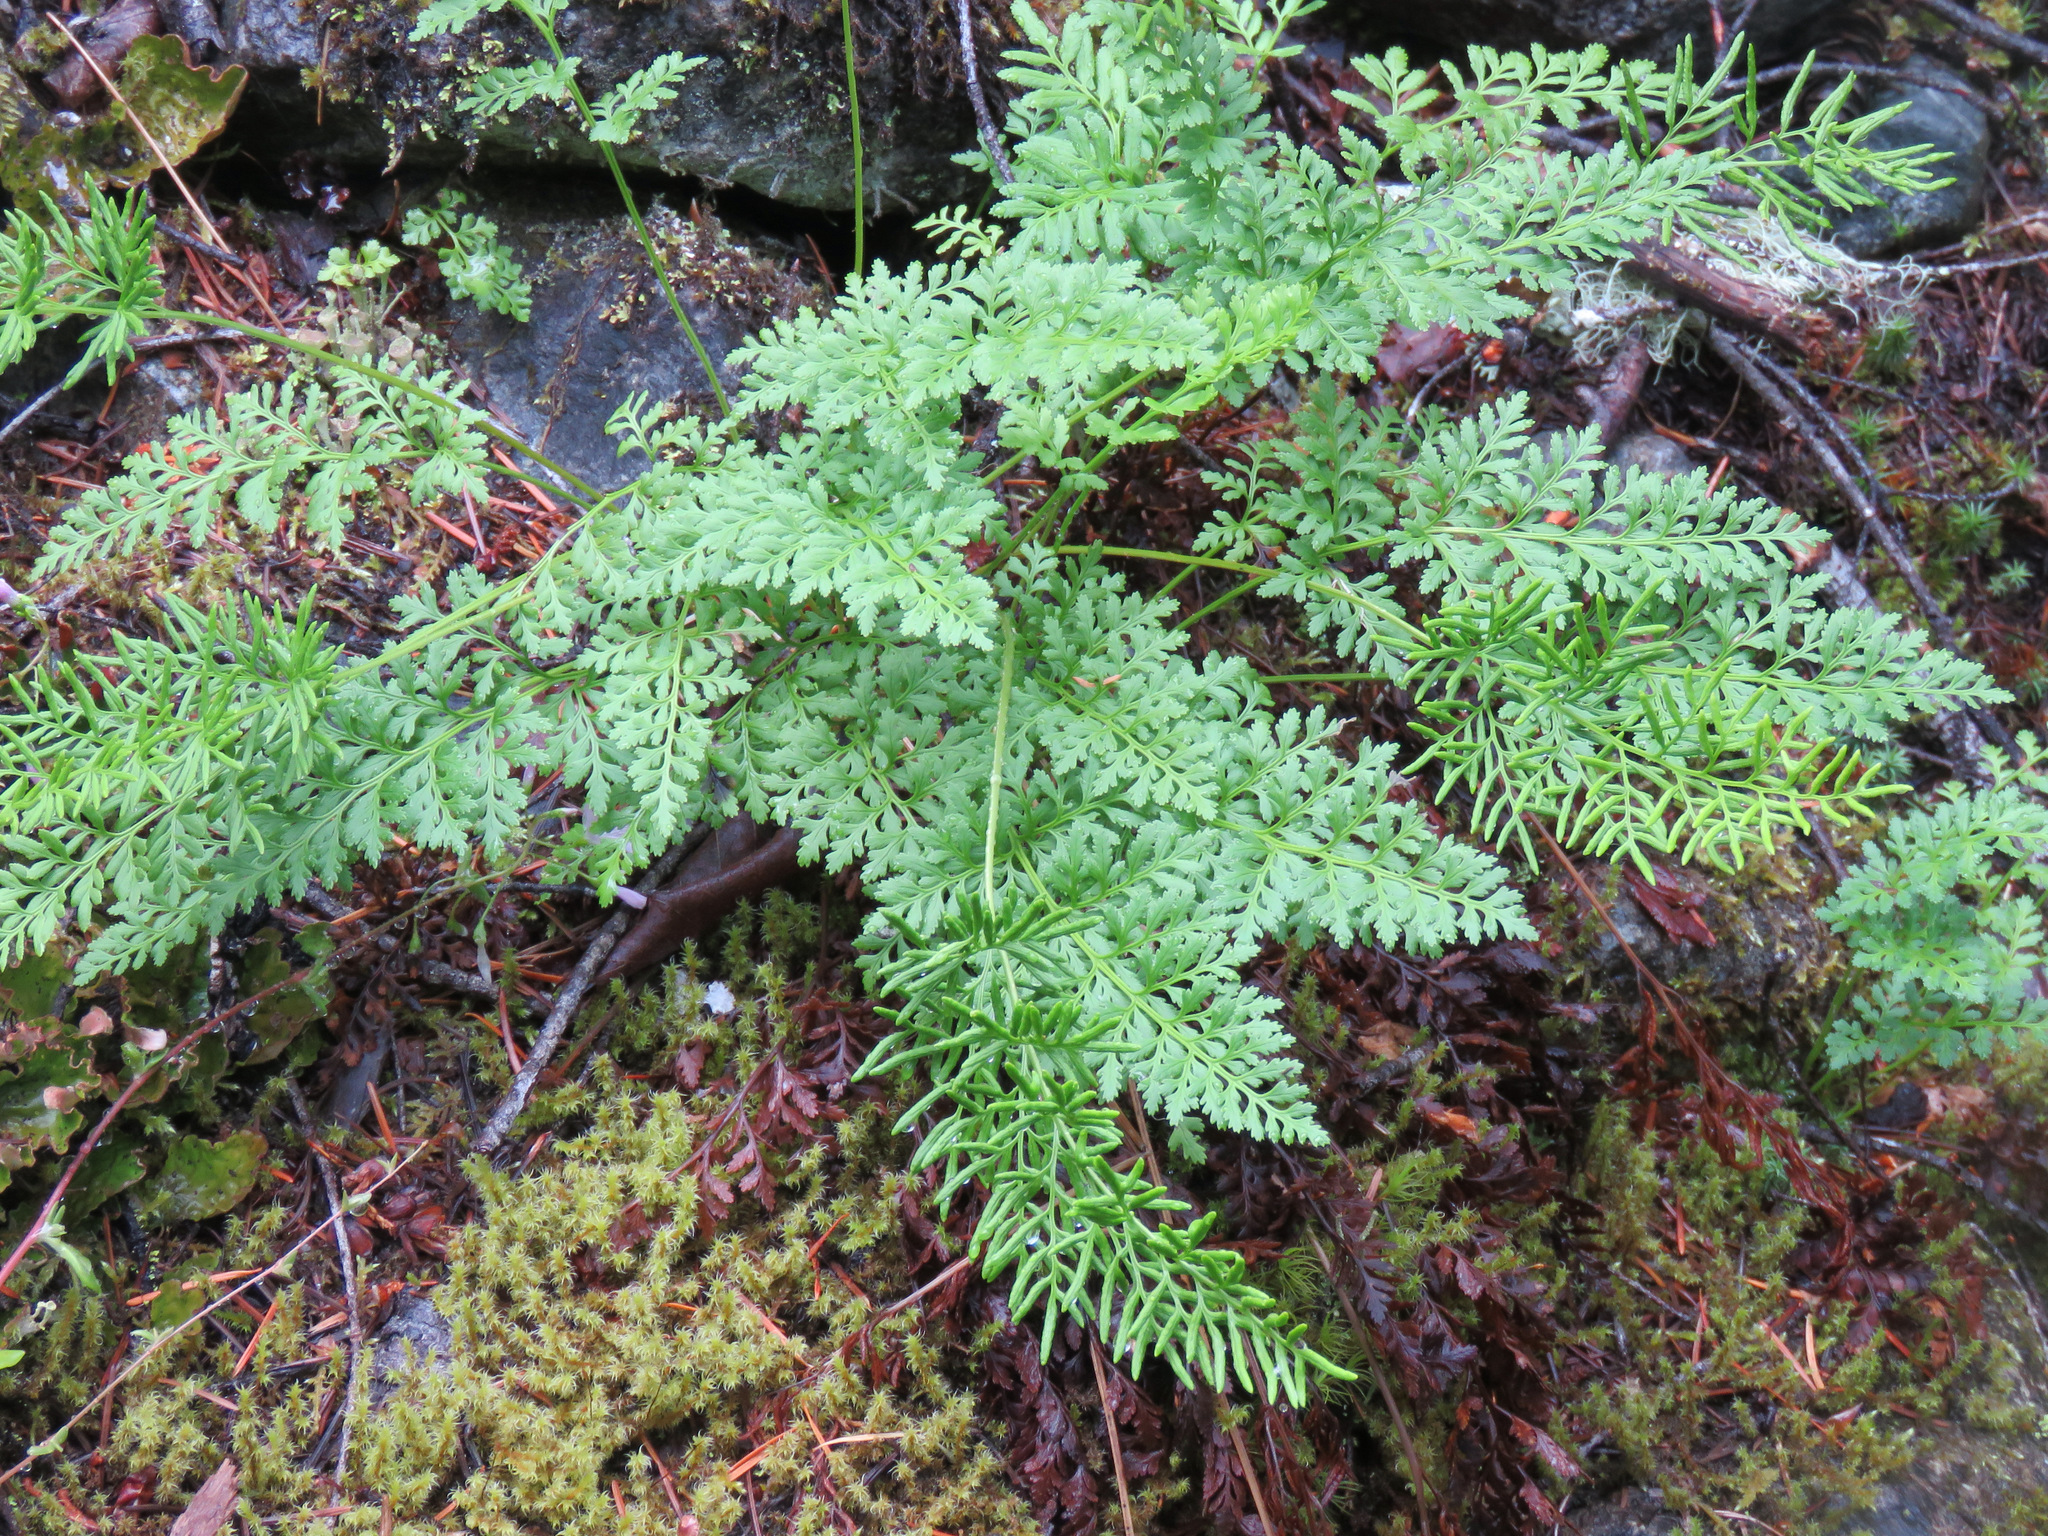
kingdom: Plantae
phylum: Tracheophyta
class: Polypodiopsida
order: Polypodiales
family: Pteridaceae
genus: Cryptogramma
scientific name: Cryptogramma acrostichoides
